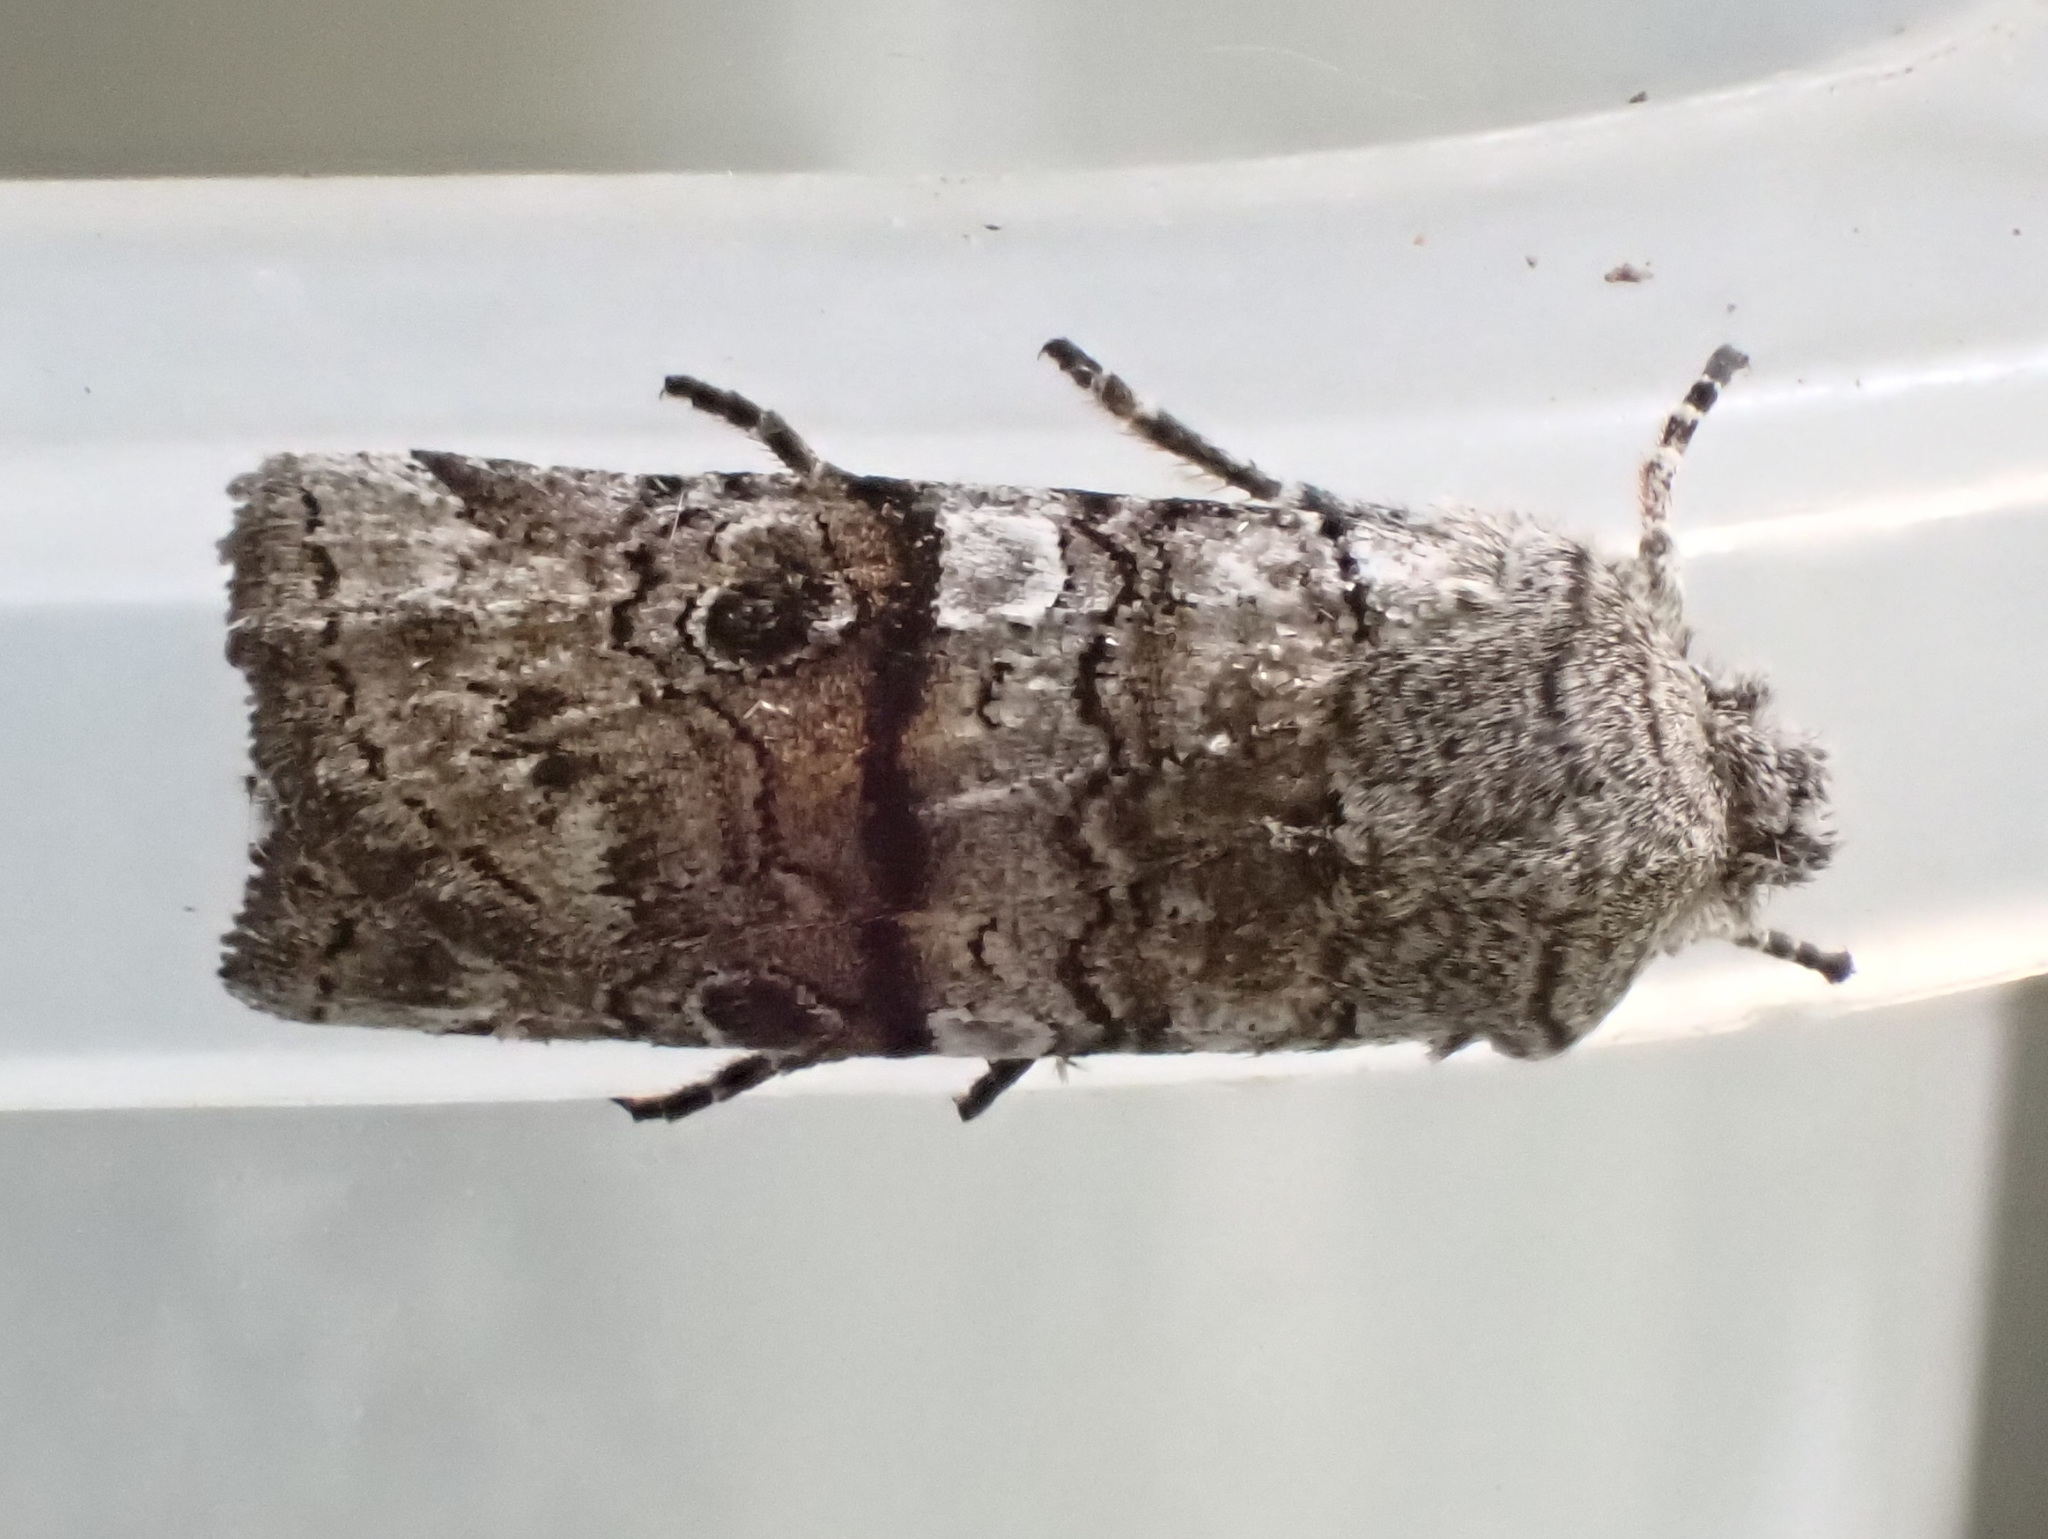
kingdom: Animalia
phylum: Arthropoda
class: Insecta
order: Lepidoptera
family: Noctuidae
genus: Litholomia
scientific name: Litholomia napaea
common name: False pinion moth
